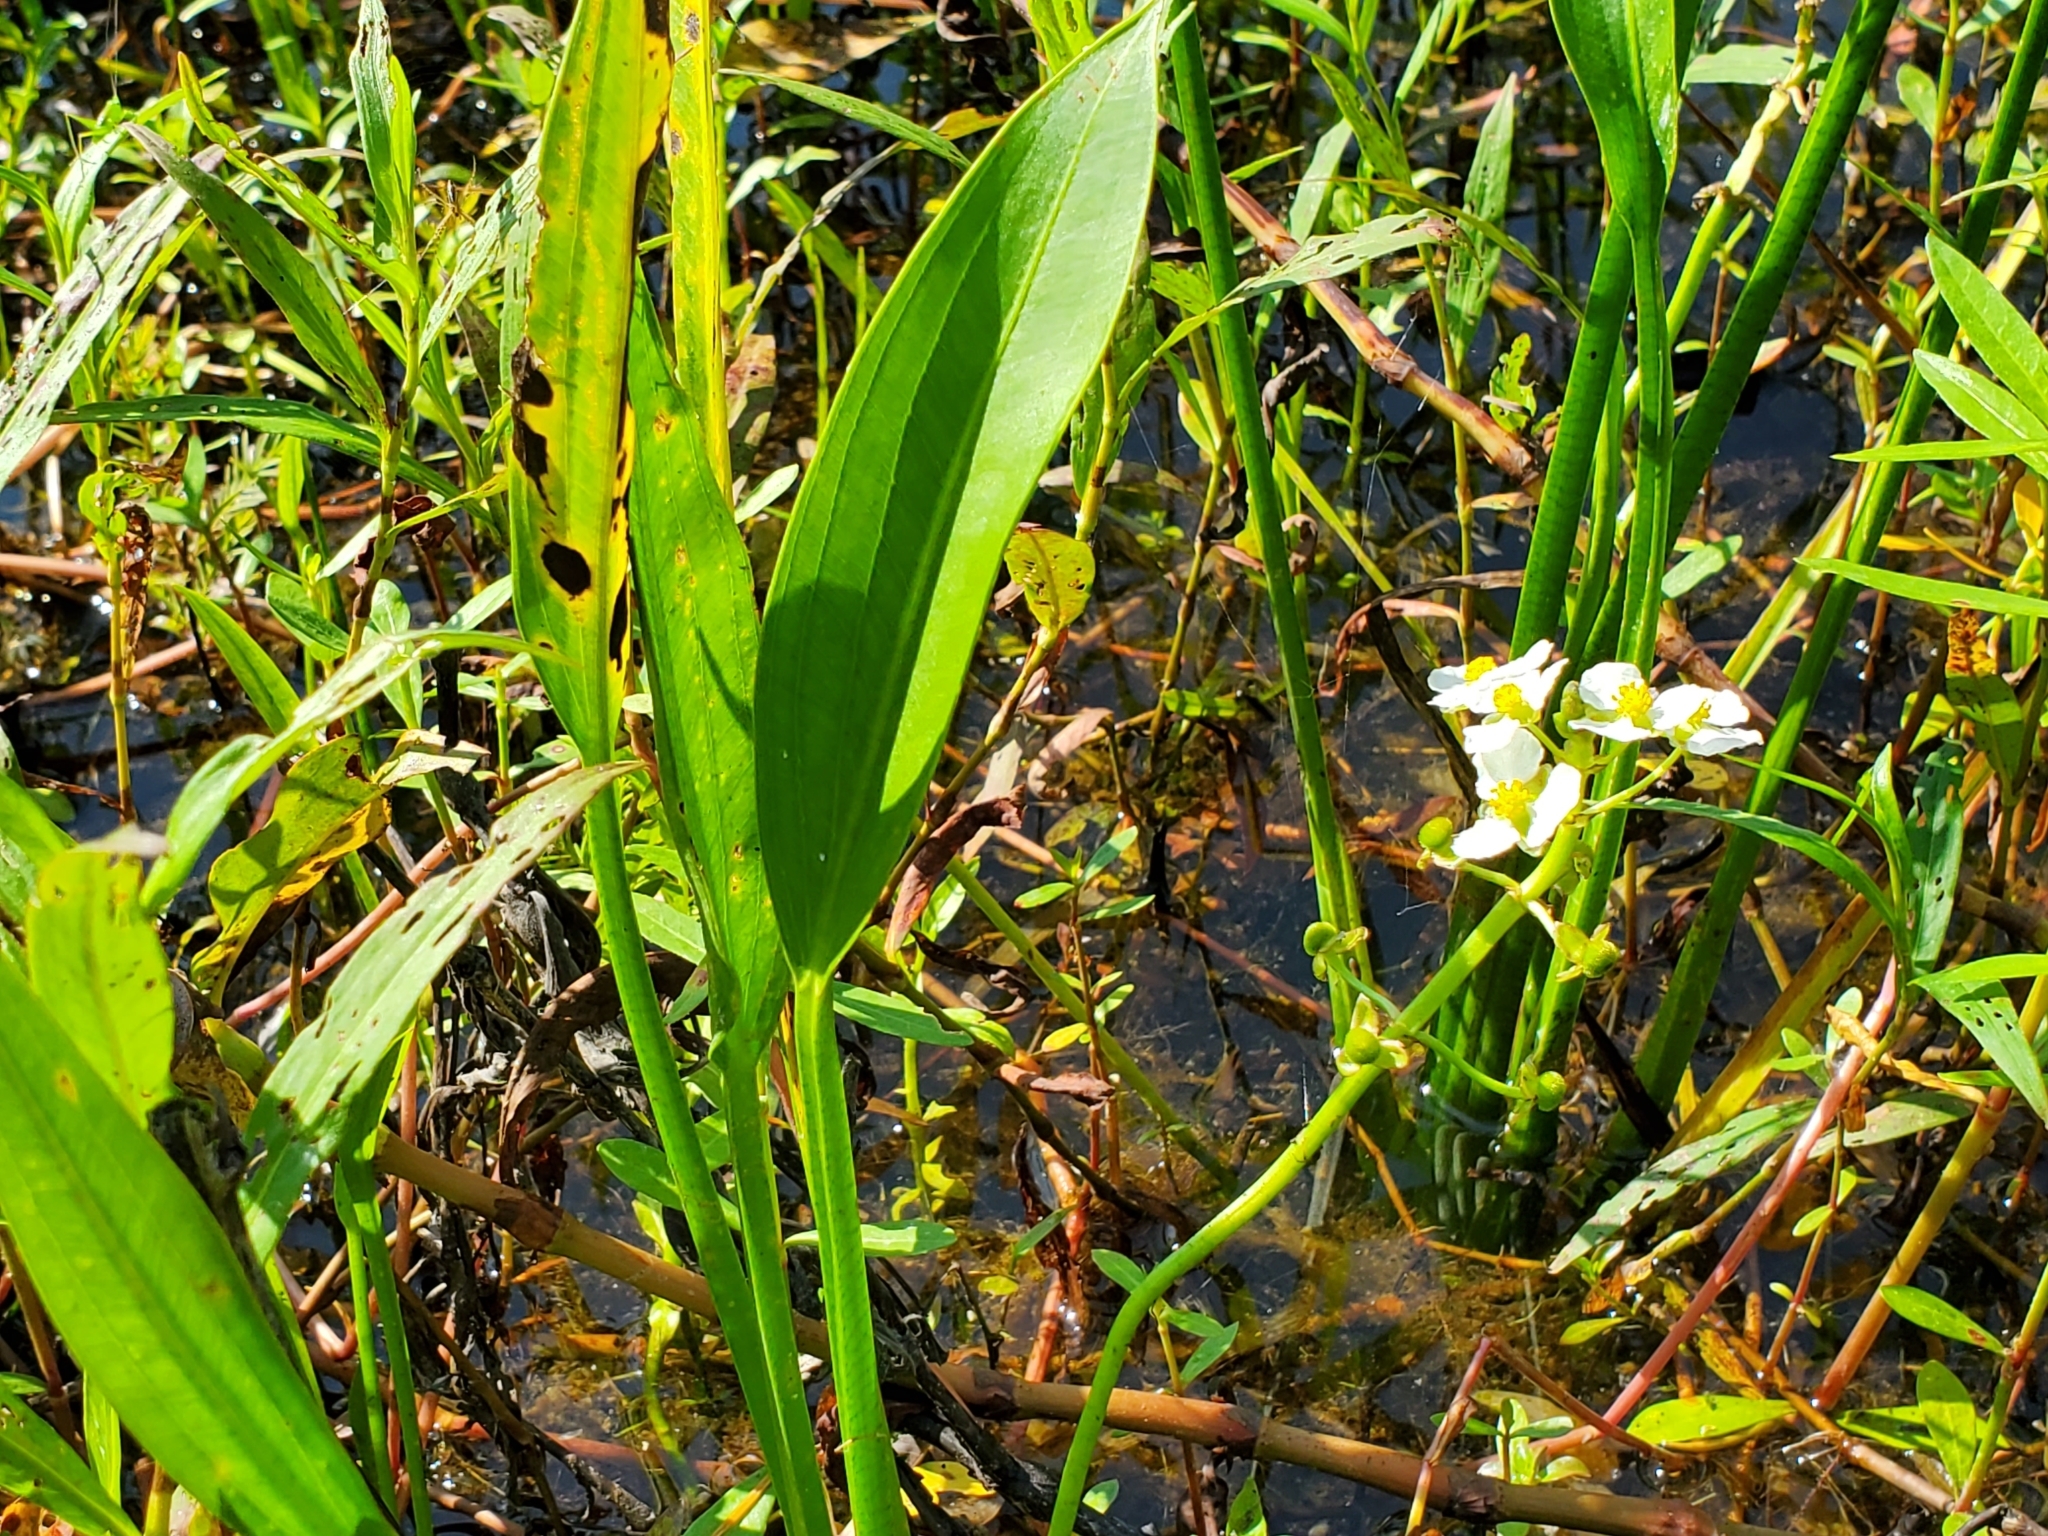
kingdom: Plantae
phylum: Tracheophyta
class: Liliopsida
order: Alismatales
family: Alismataceae
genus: Sagittaria
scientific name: Sagittaria platyphylla
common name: Broad-leaf arrowhead
